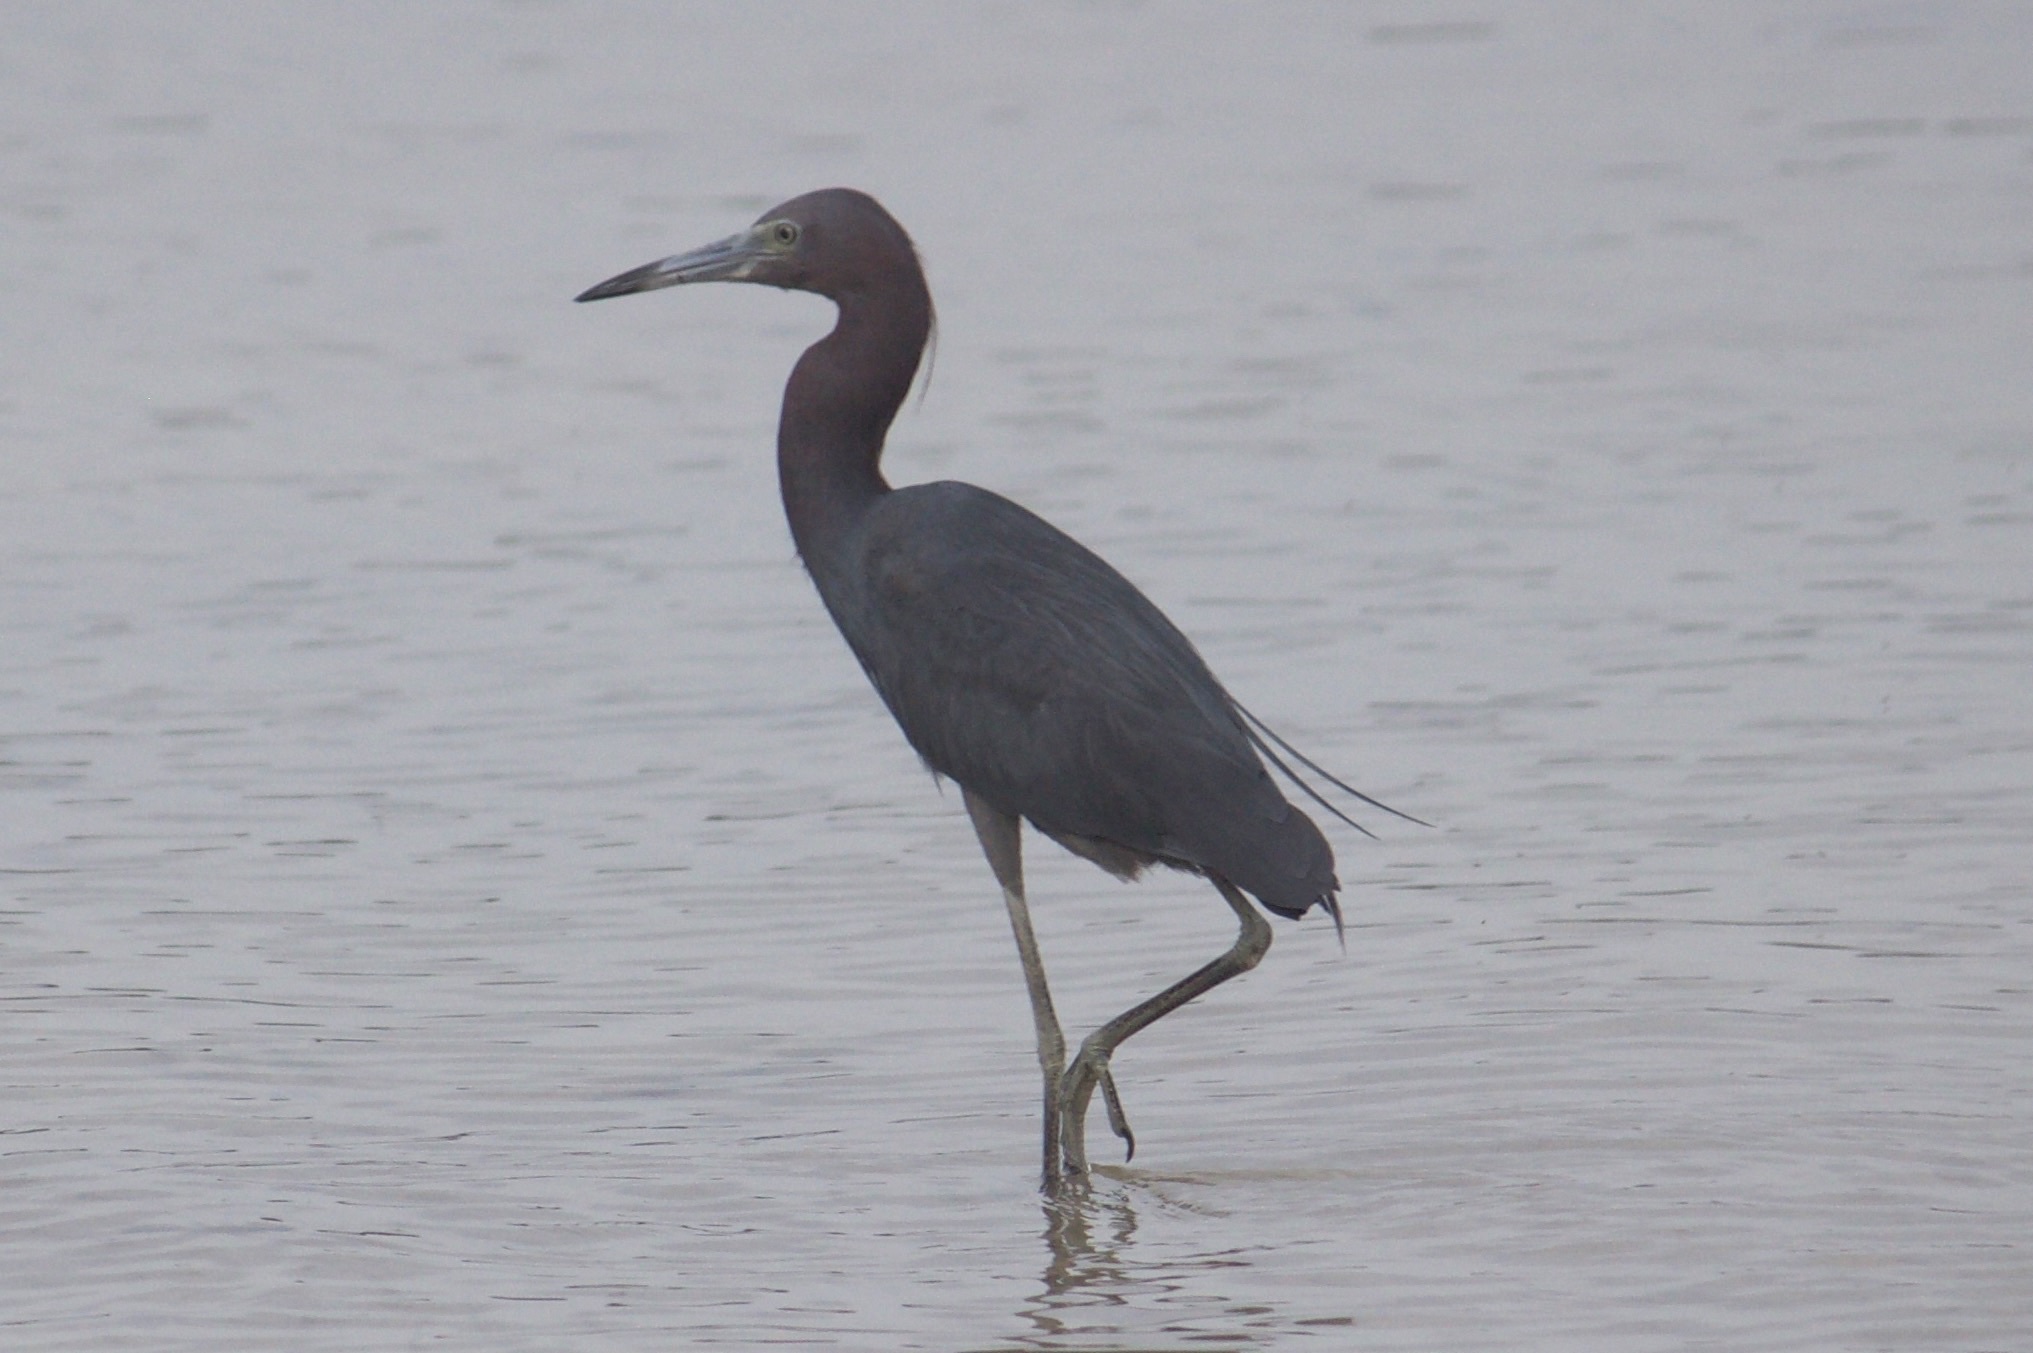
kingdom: Animalia
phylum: Chordata
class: Aves
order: Pelecaniformes
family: Ardeidae
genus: Egretta
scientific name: Egretta caerulea
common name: Little blue heron
